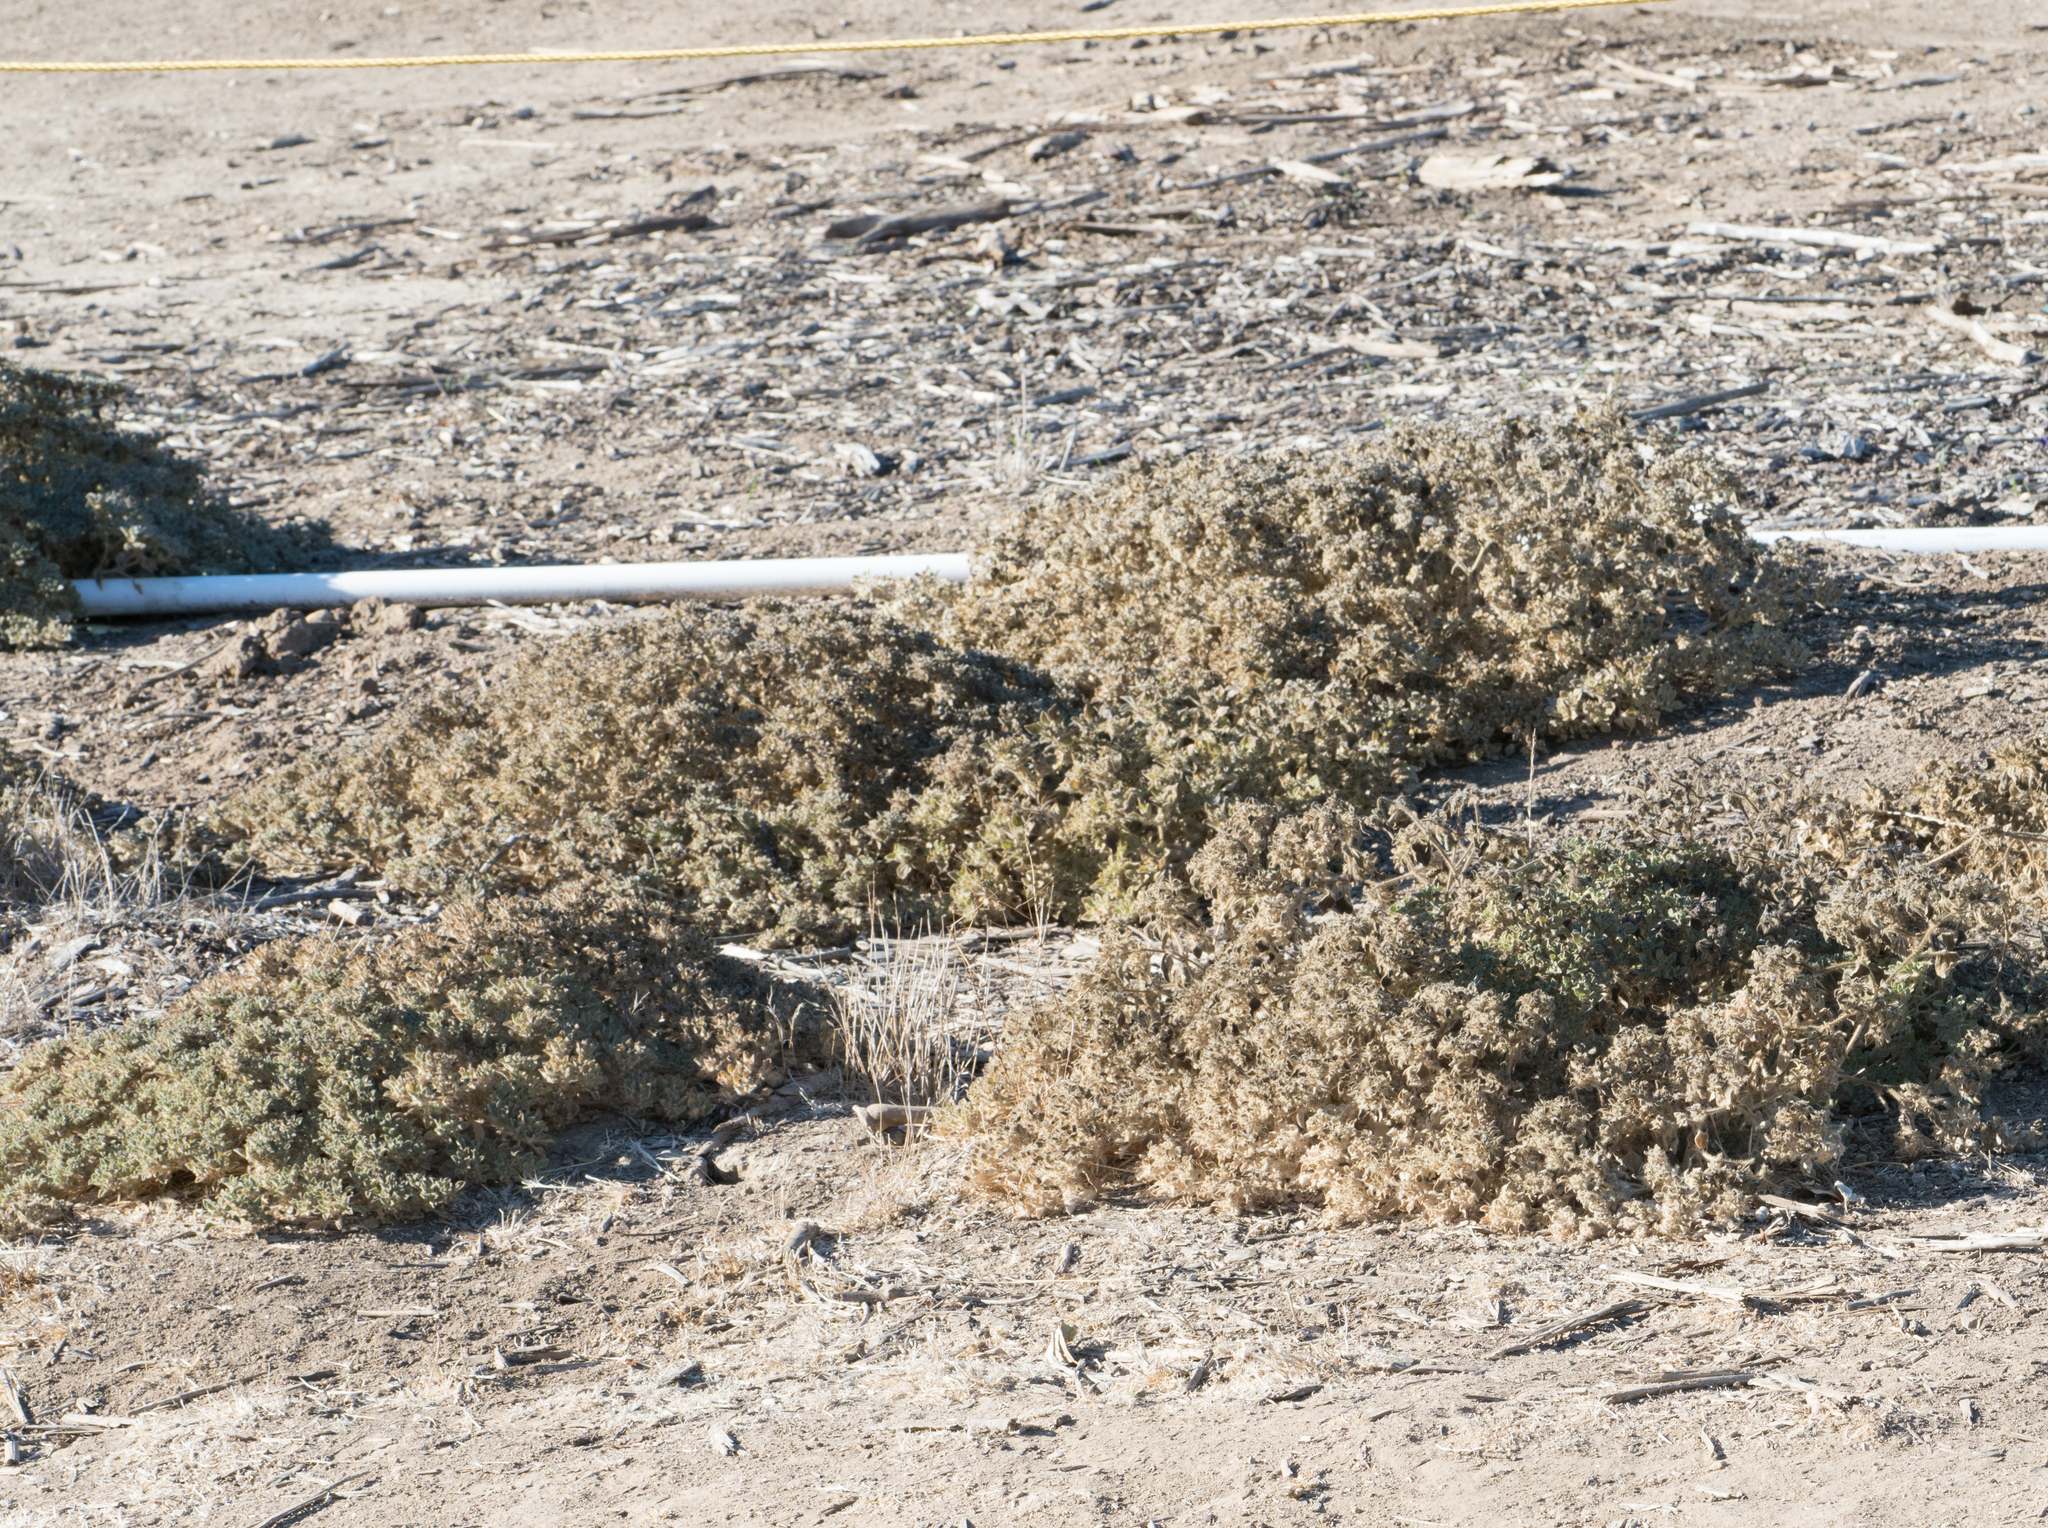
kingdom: Plantae
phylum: Tracheophyta
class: Magnoliopsida
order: Malpighiales
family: Euphorbiaceae
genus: Croton
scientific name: Croton setiger
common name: Dove weed
